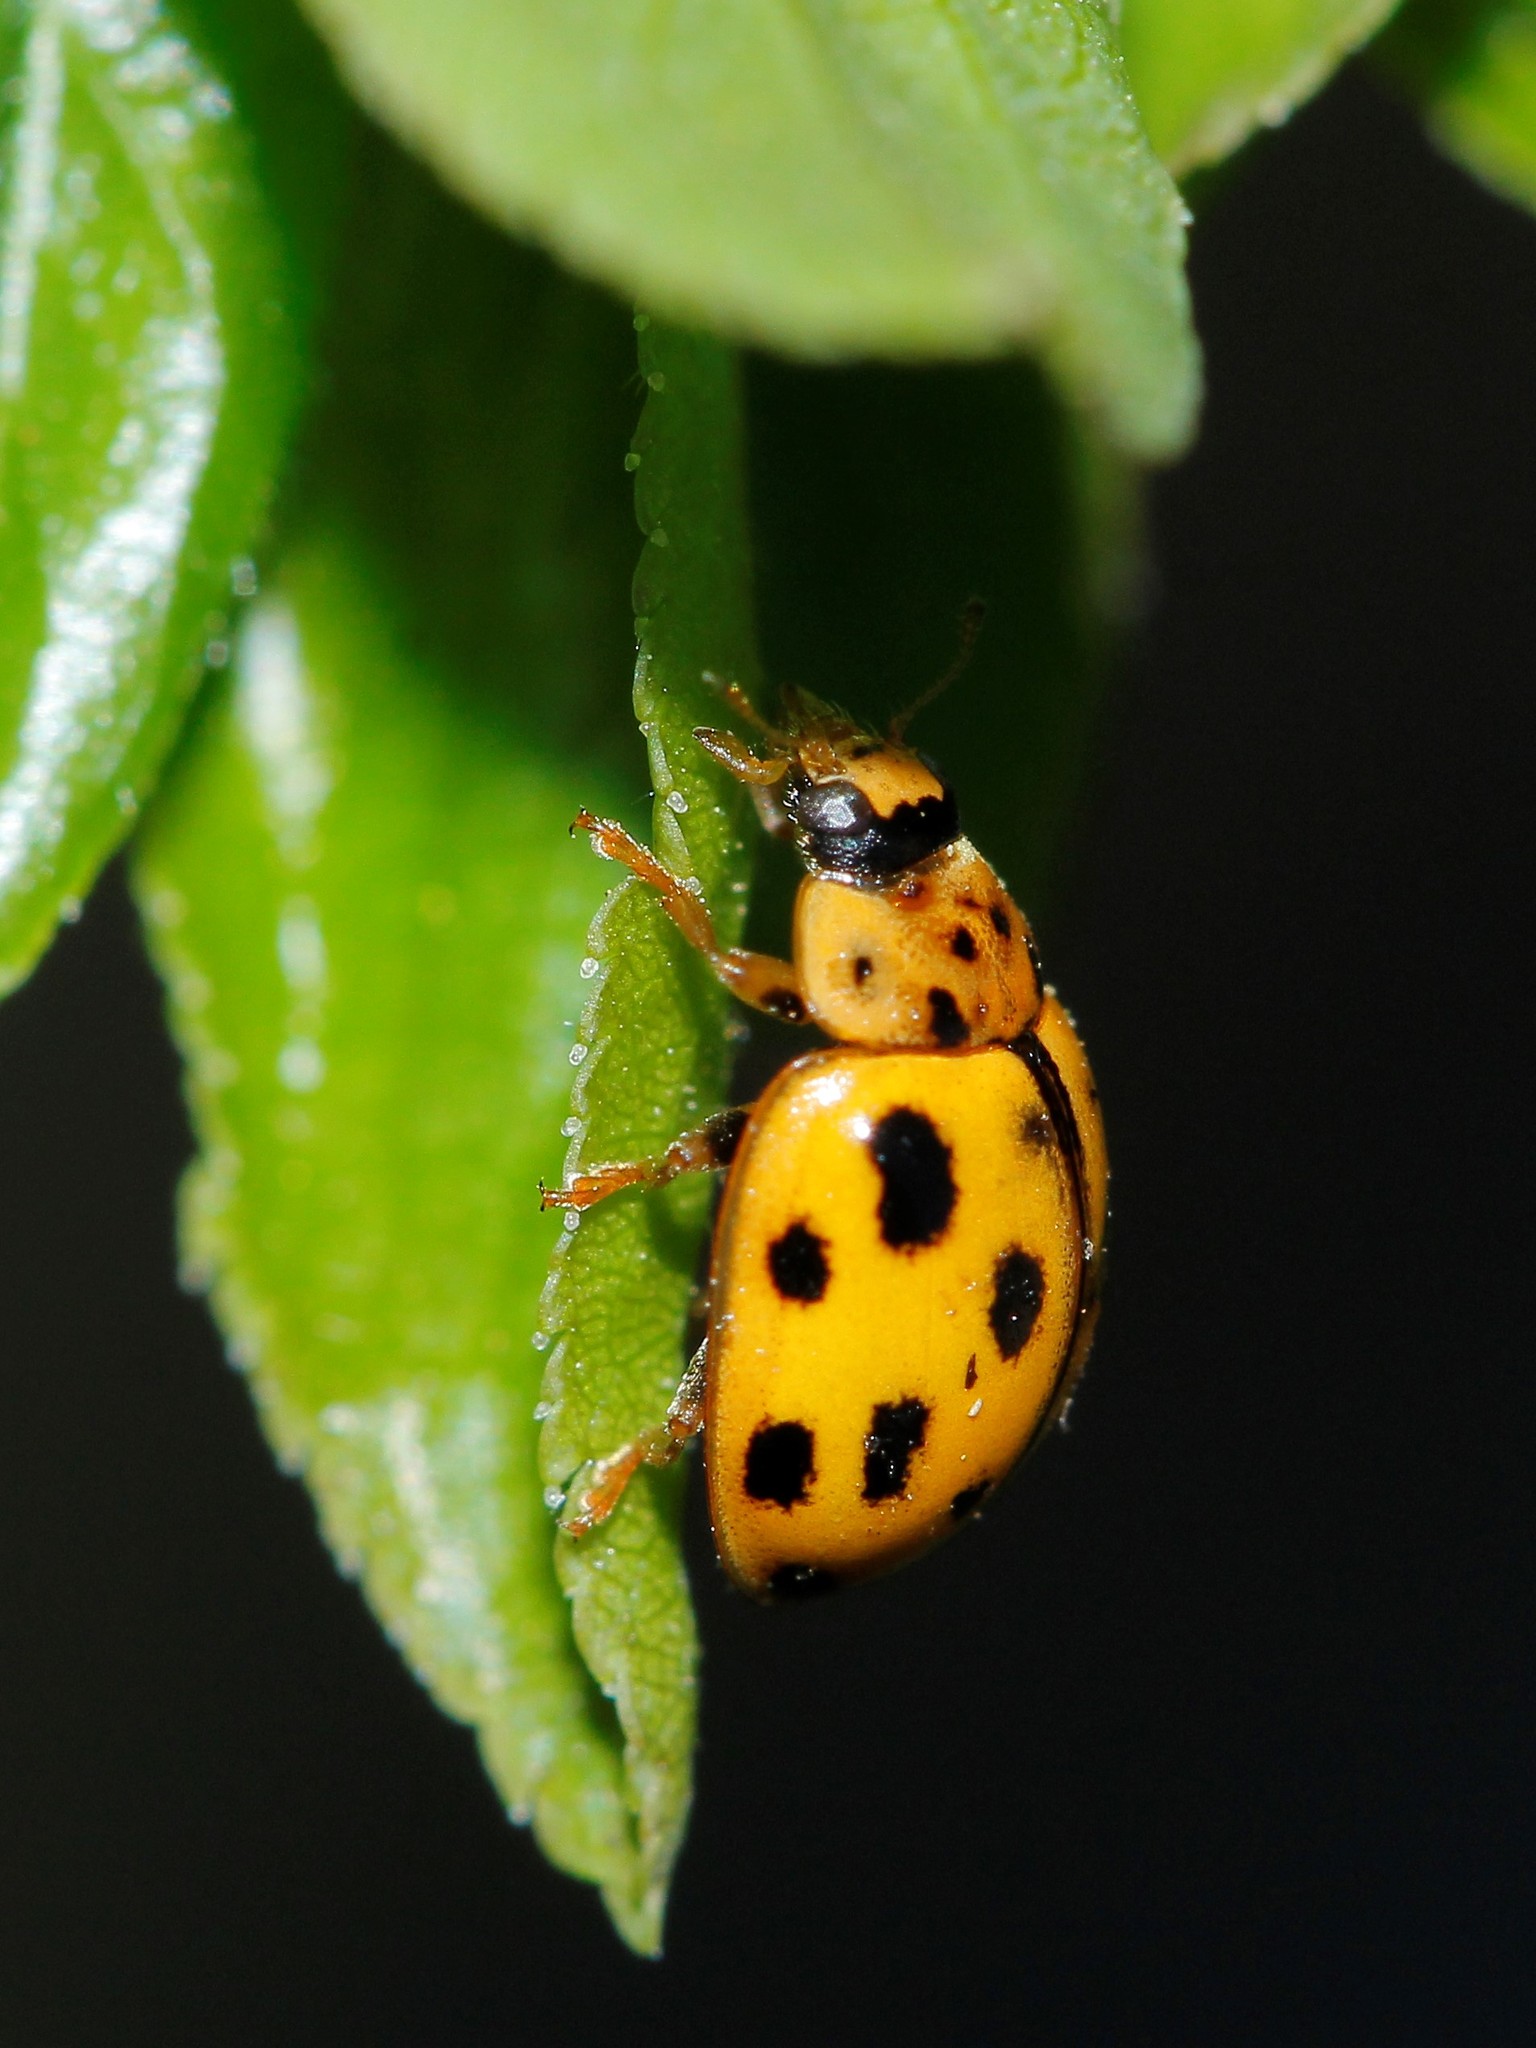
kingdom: Animalia
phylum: Arthropoda
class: Insecta
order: Coleoptera
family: Coccinellidae
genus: Propylaea
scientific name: Propylaea quatuordecimpunctata
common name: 14-spotted ladybird beetle
